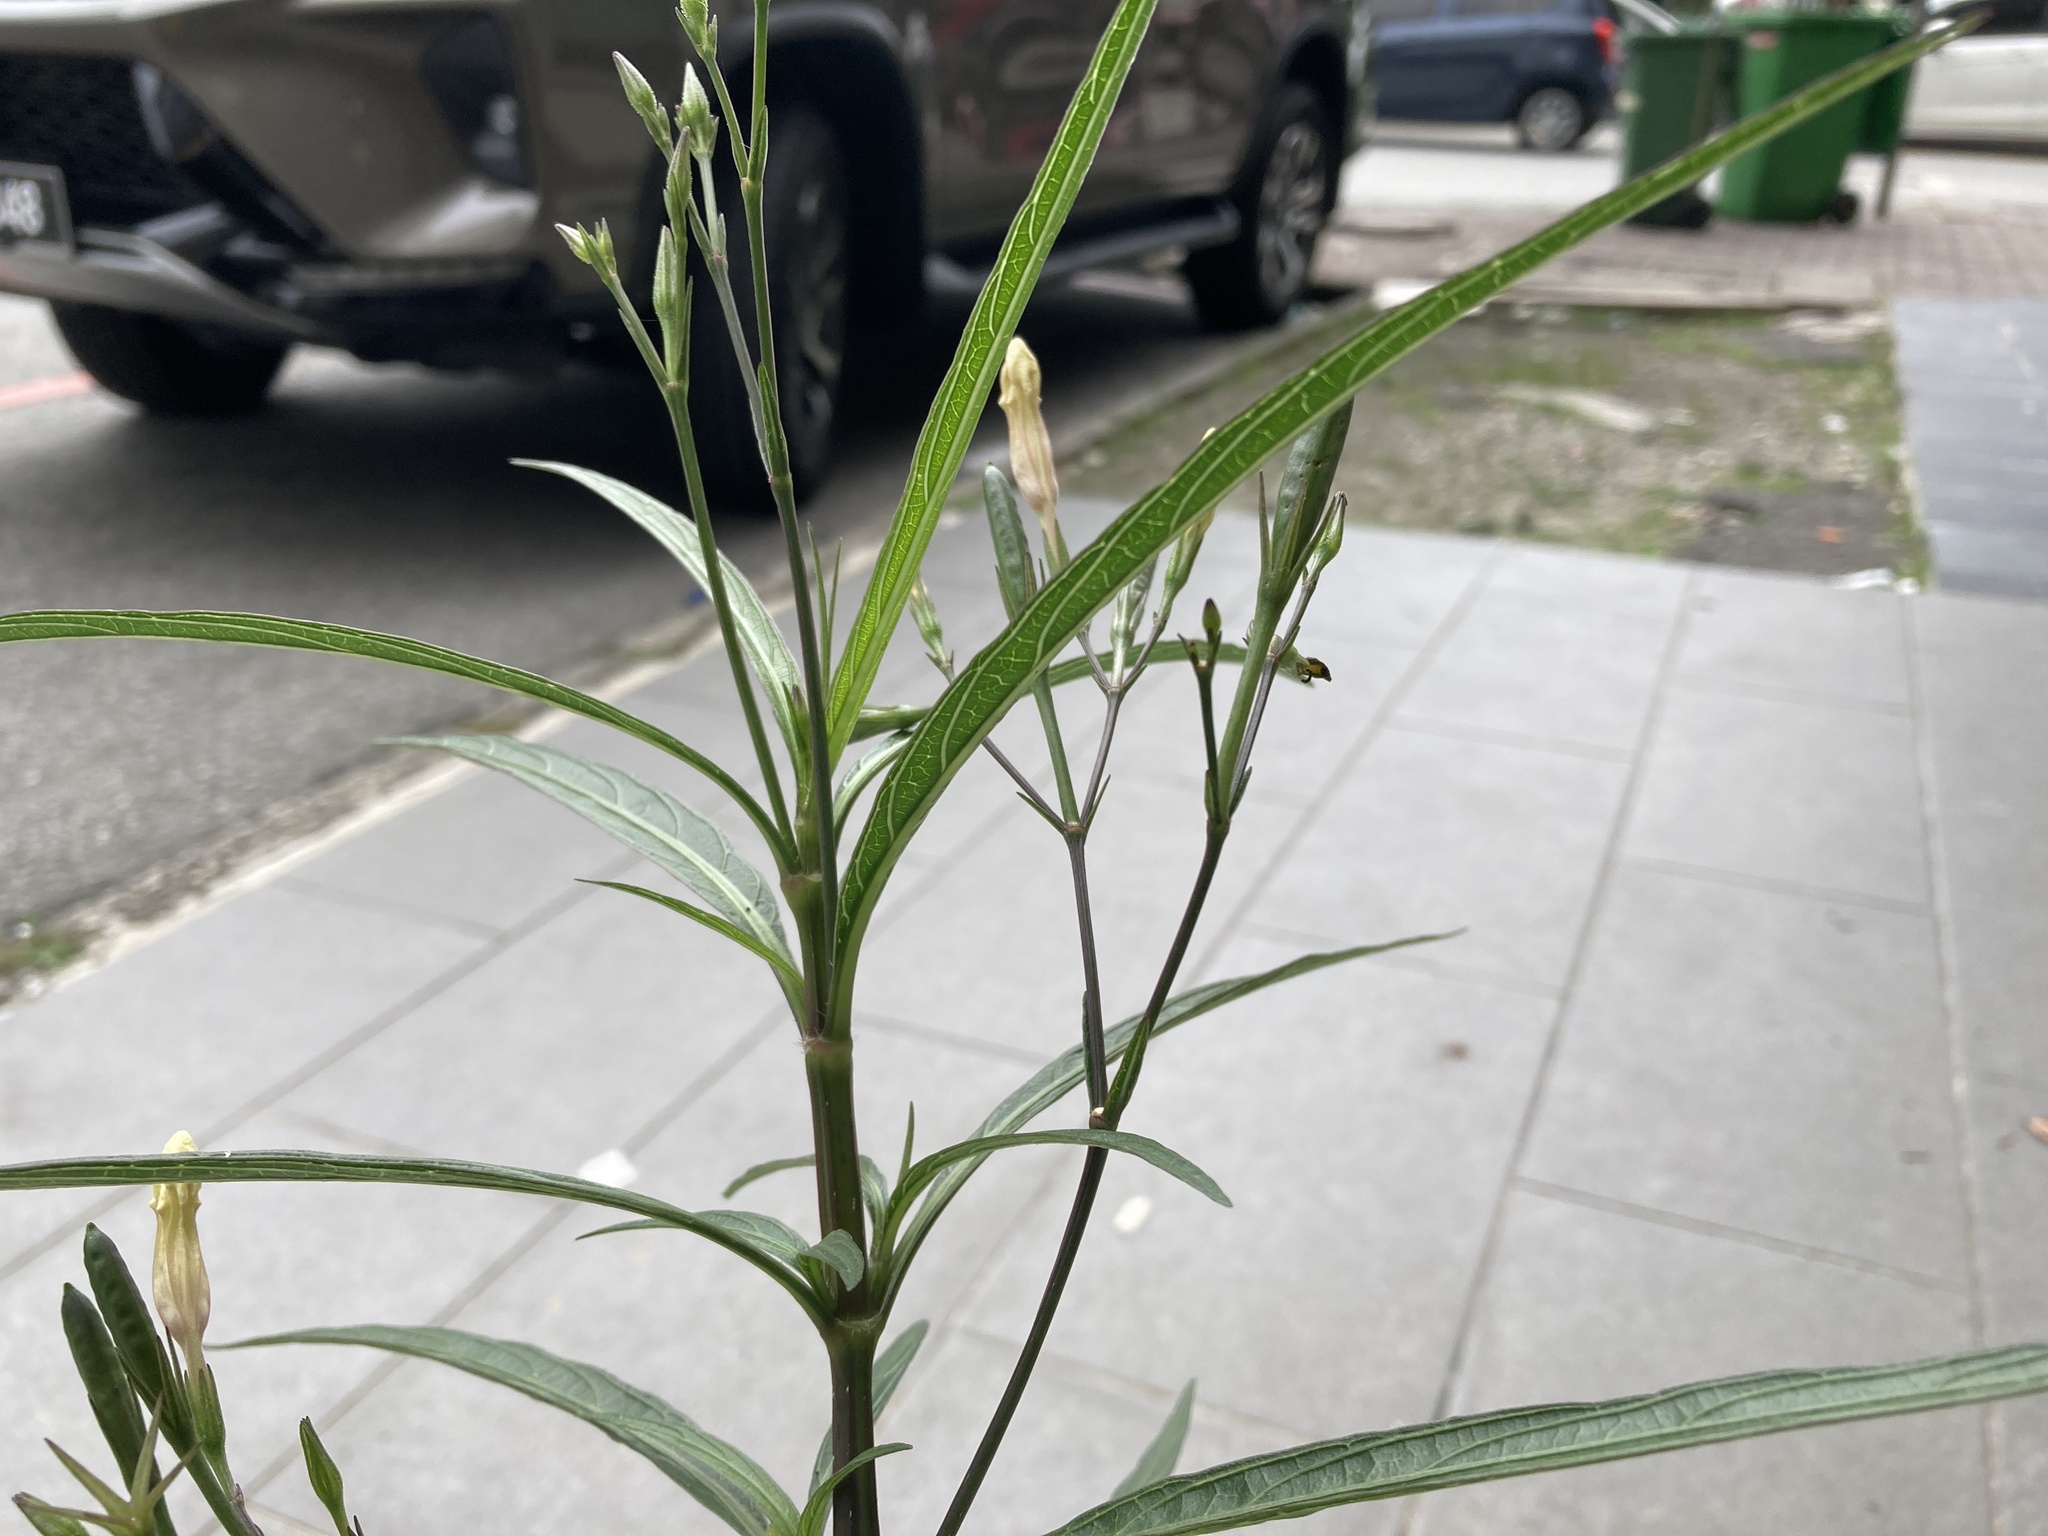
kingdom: Plantae
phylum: Tracheophyta
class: Magnoliopsida
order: Lamiales
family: Acanthaceae
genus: Ruellia
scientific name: Ruellia simplex
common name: Softseed wild petunia
